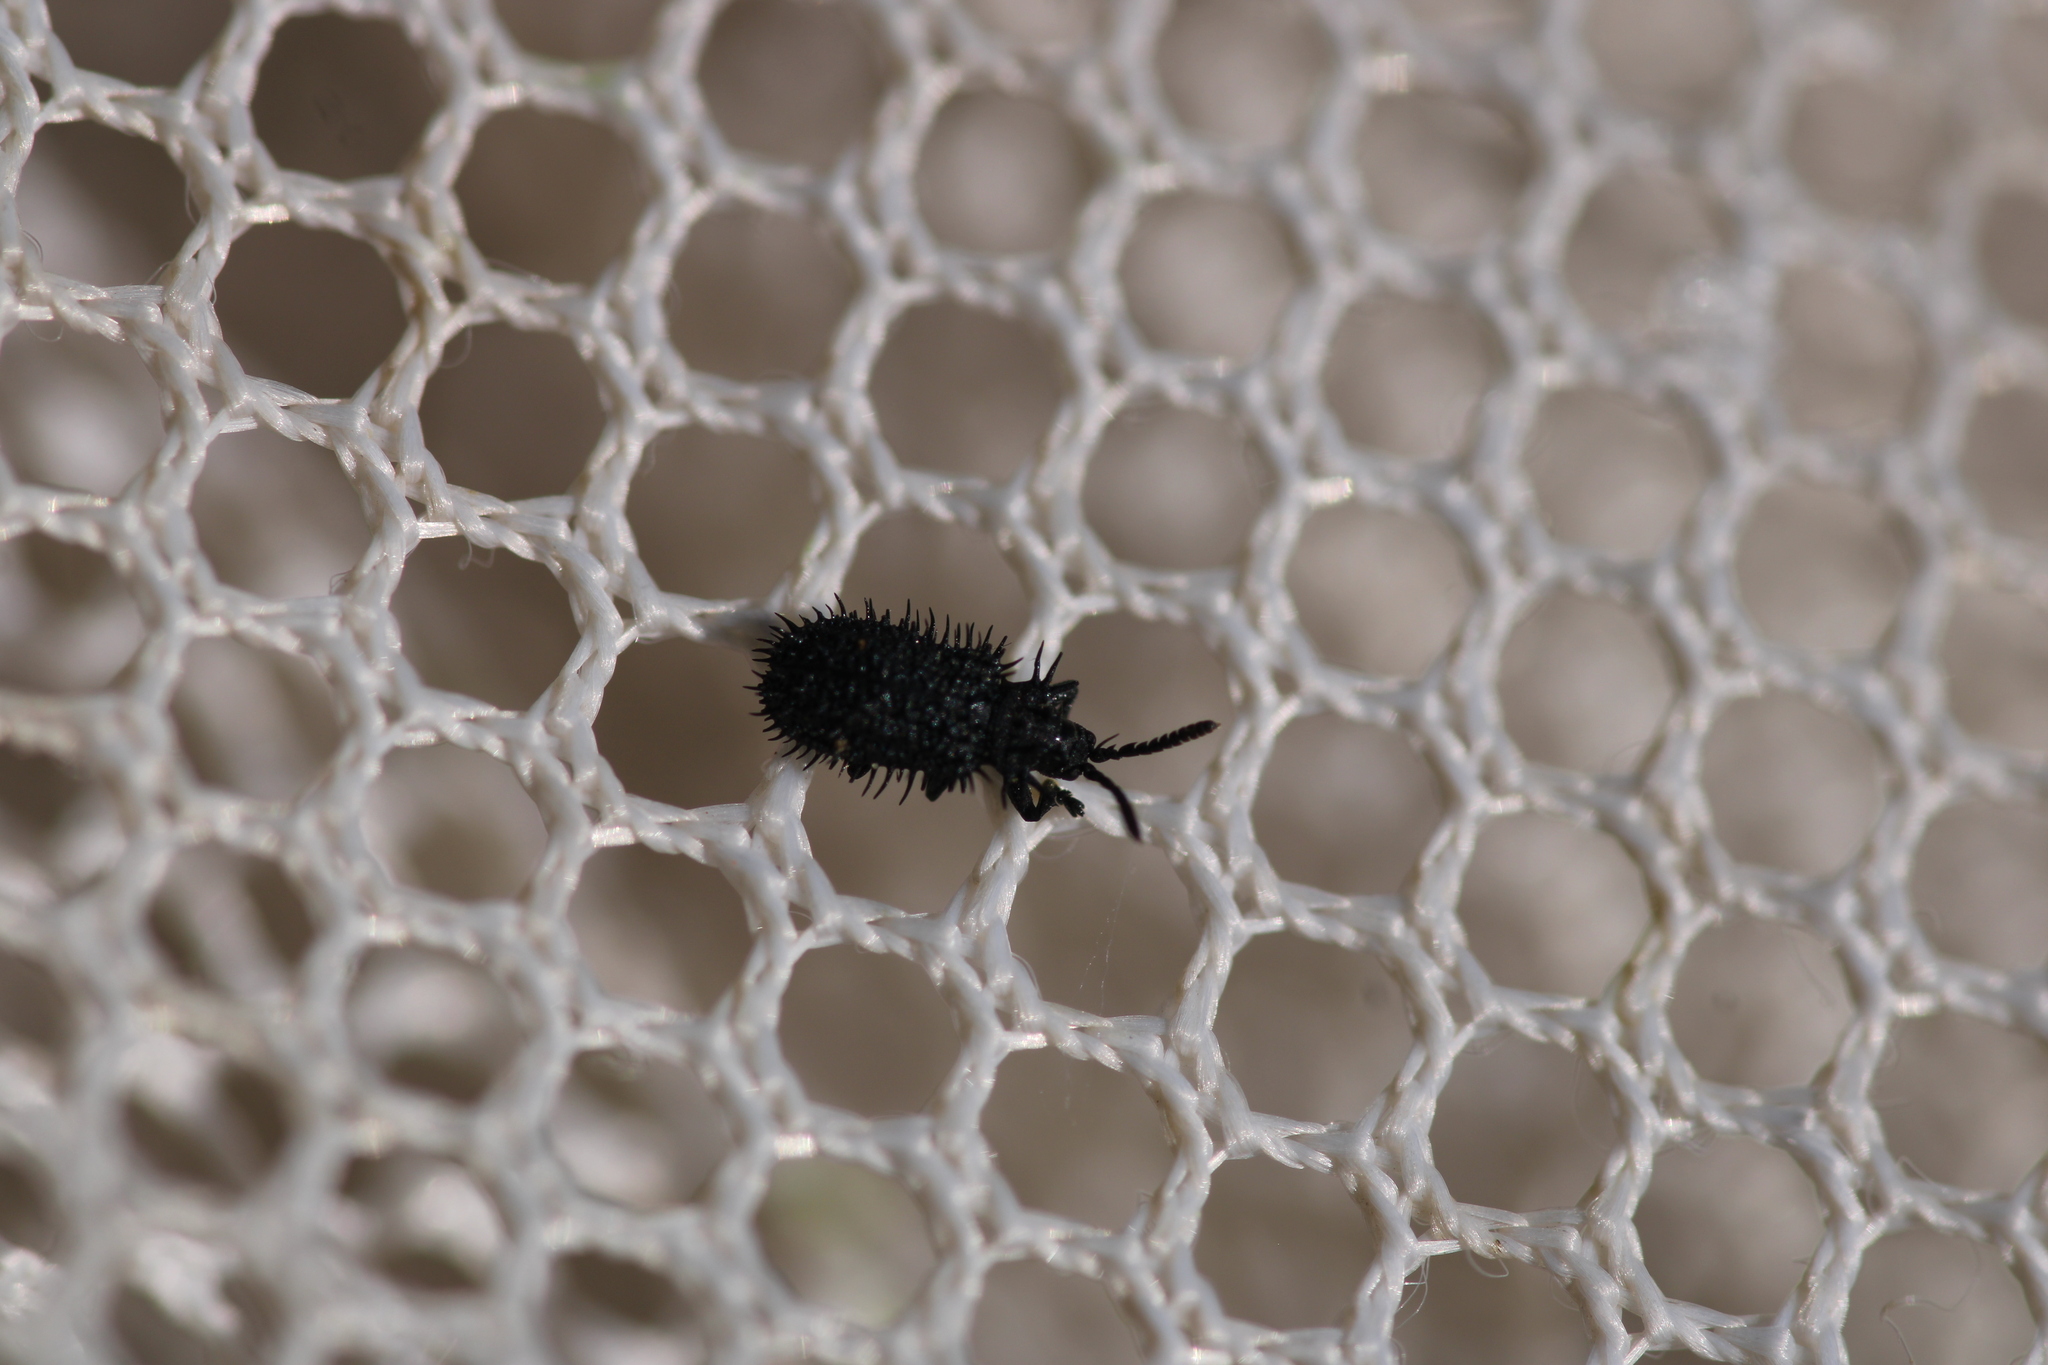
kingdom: Animalia
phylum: Arthropoda
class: Insecta
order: Coleoptera
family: Chrysomelidae
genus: Hispa
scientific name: Hispa atra
